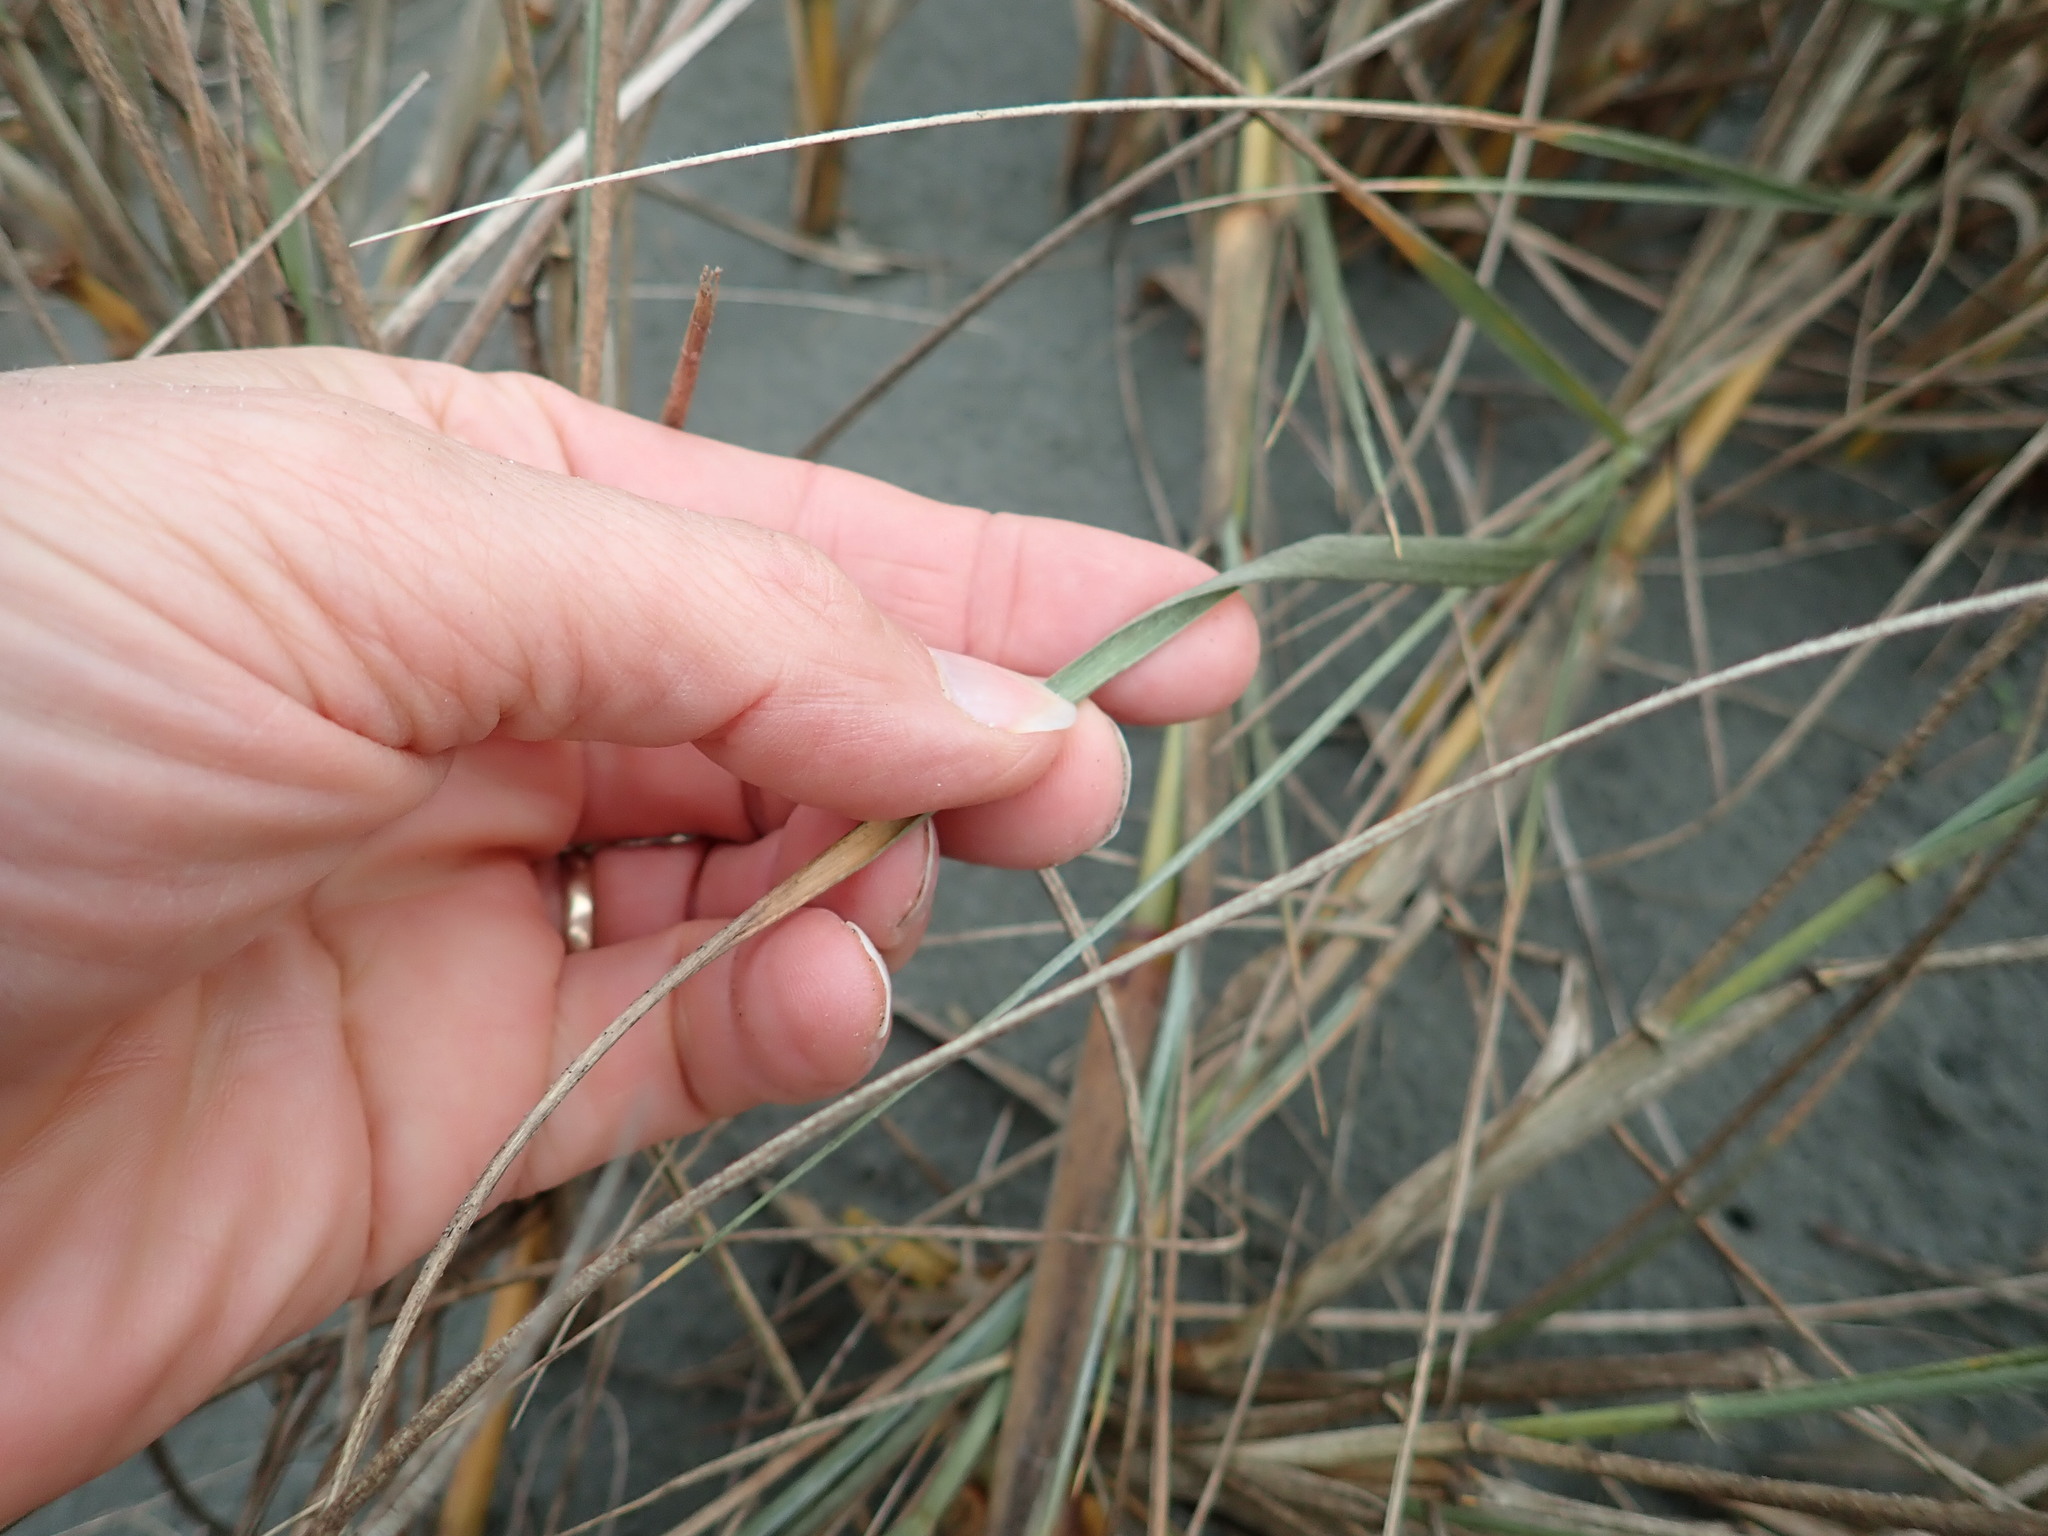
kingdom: Plantae
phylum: Tracheophyta
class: Liliopsida
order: Poales
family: Poaceae
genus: Spinifex
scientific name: Spinifex sericeus
